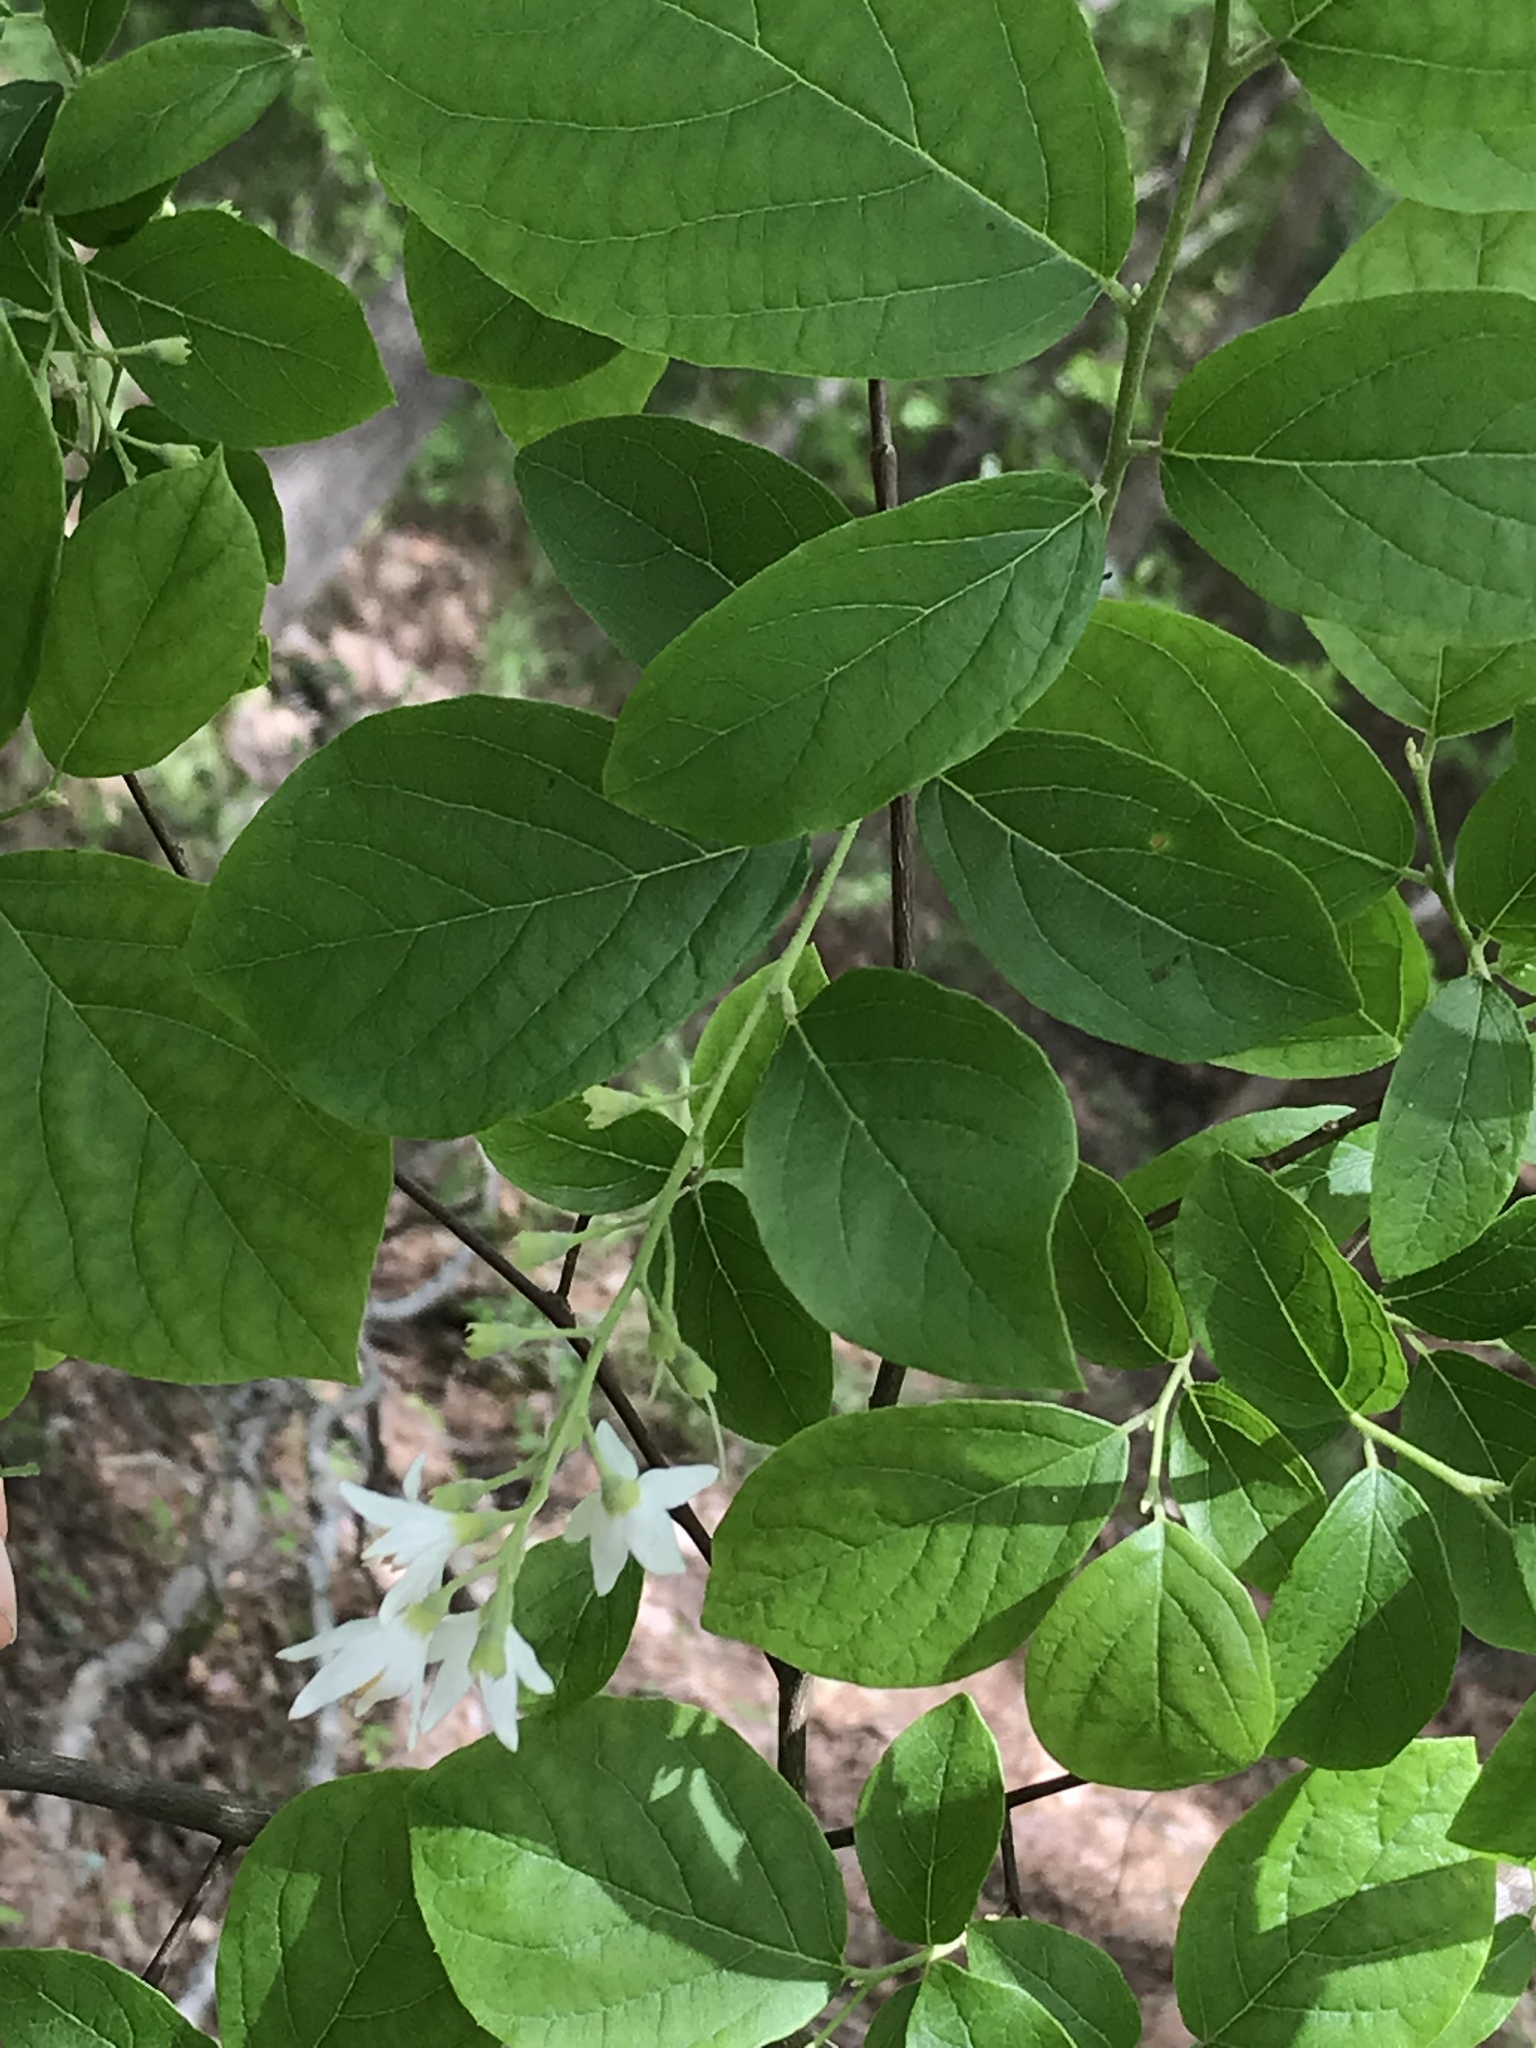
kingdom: Plantae
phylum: Tracheophyta
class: Magnoliopsida
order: Ericales
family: Styracaceae
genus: Styrax
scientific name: Styrax grandifolius
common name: Big-leaf snowbell
